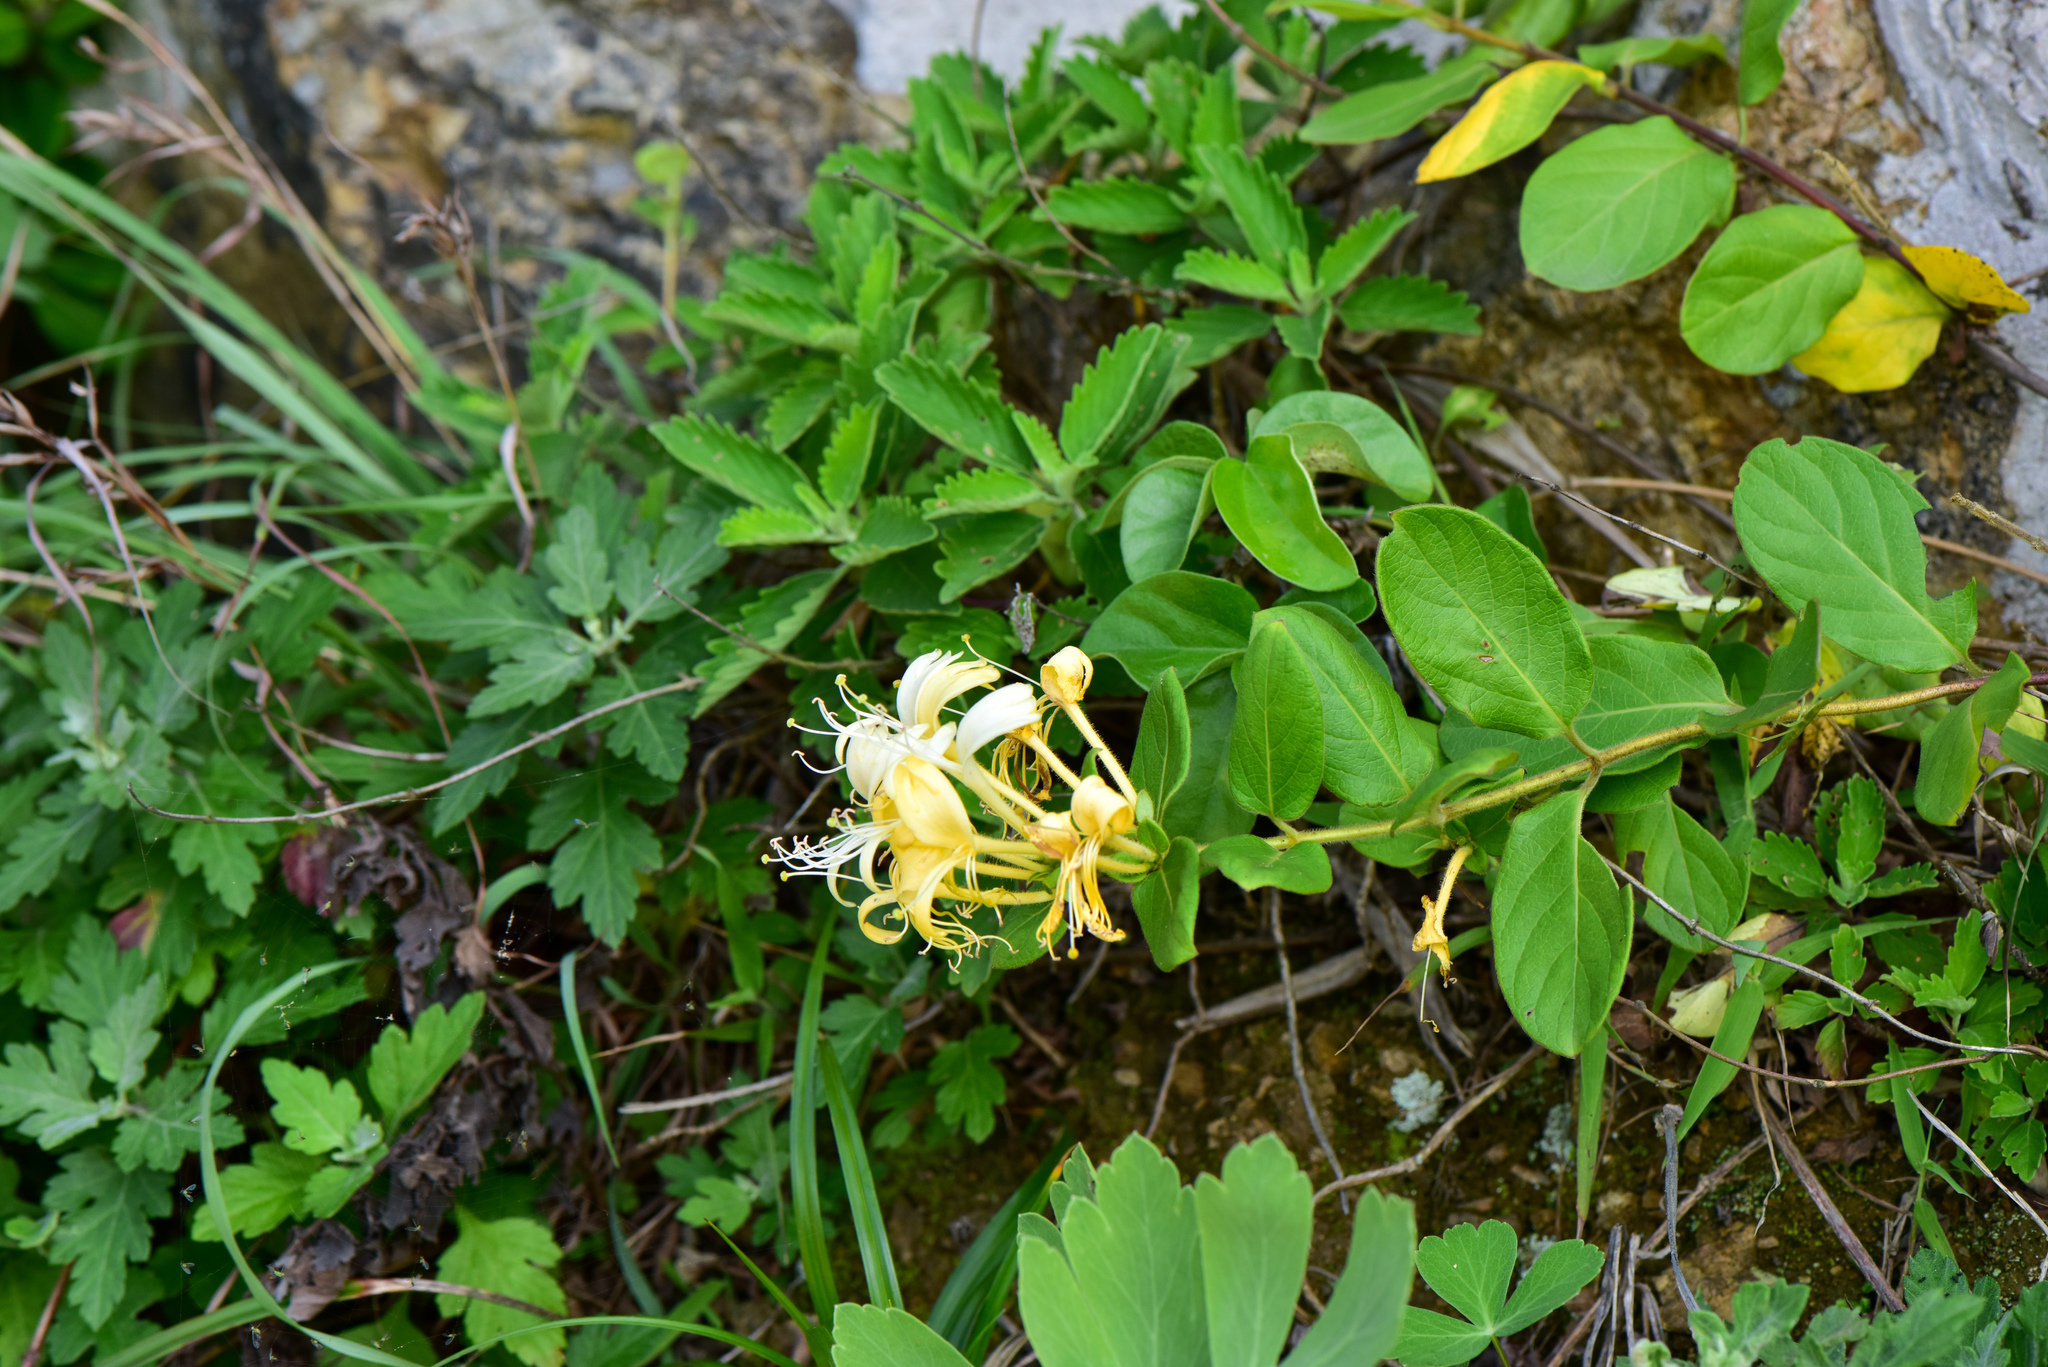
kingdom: Plantae
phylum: Tracheophyta
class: Magnoliopsida
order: Dipsacales
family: Caprifoliaceae
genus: Lonicera
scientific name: Lonicera japonica
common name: Japanese honeysuckle
